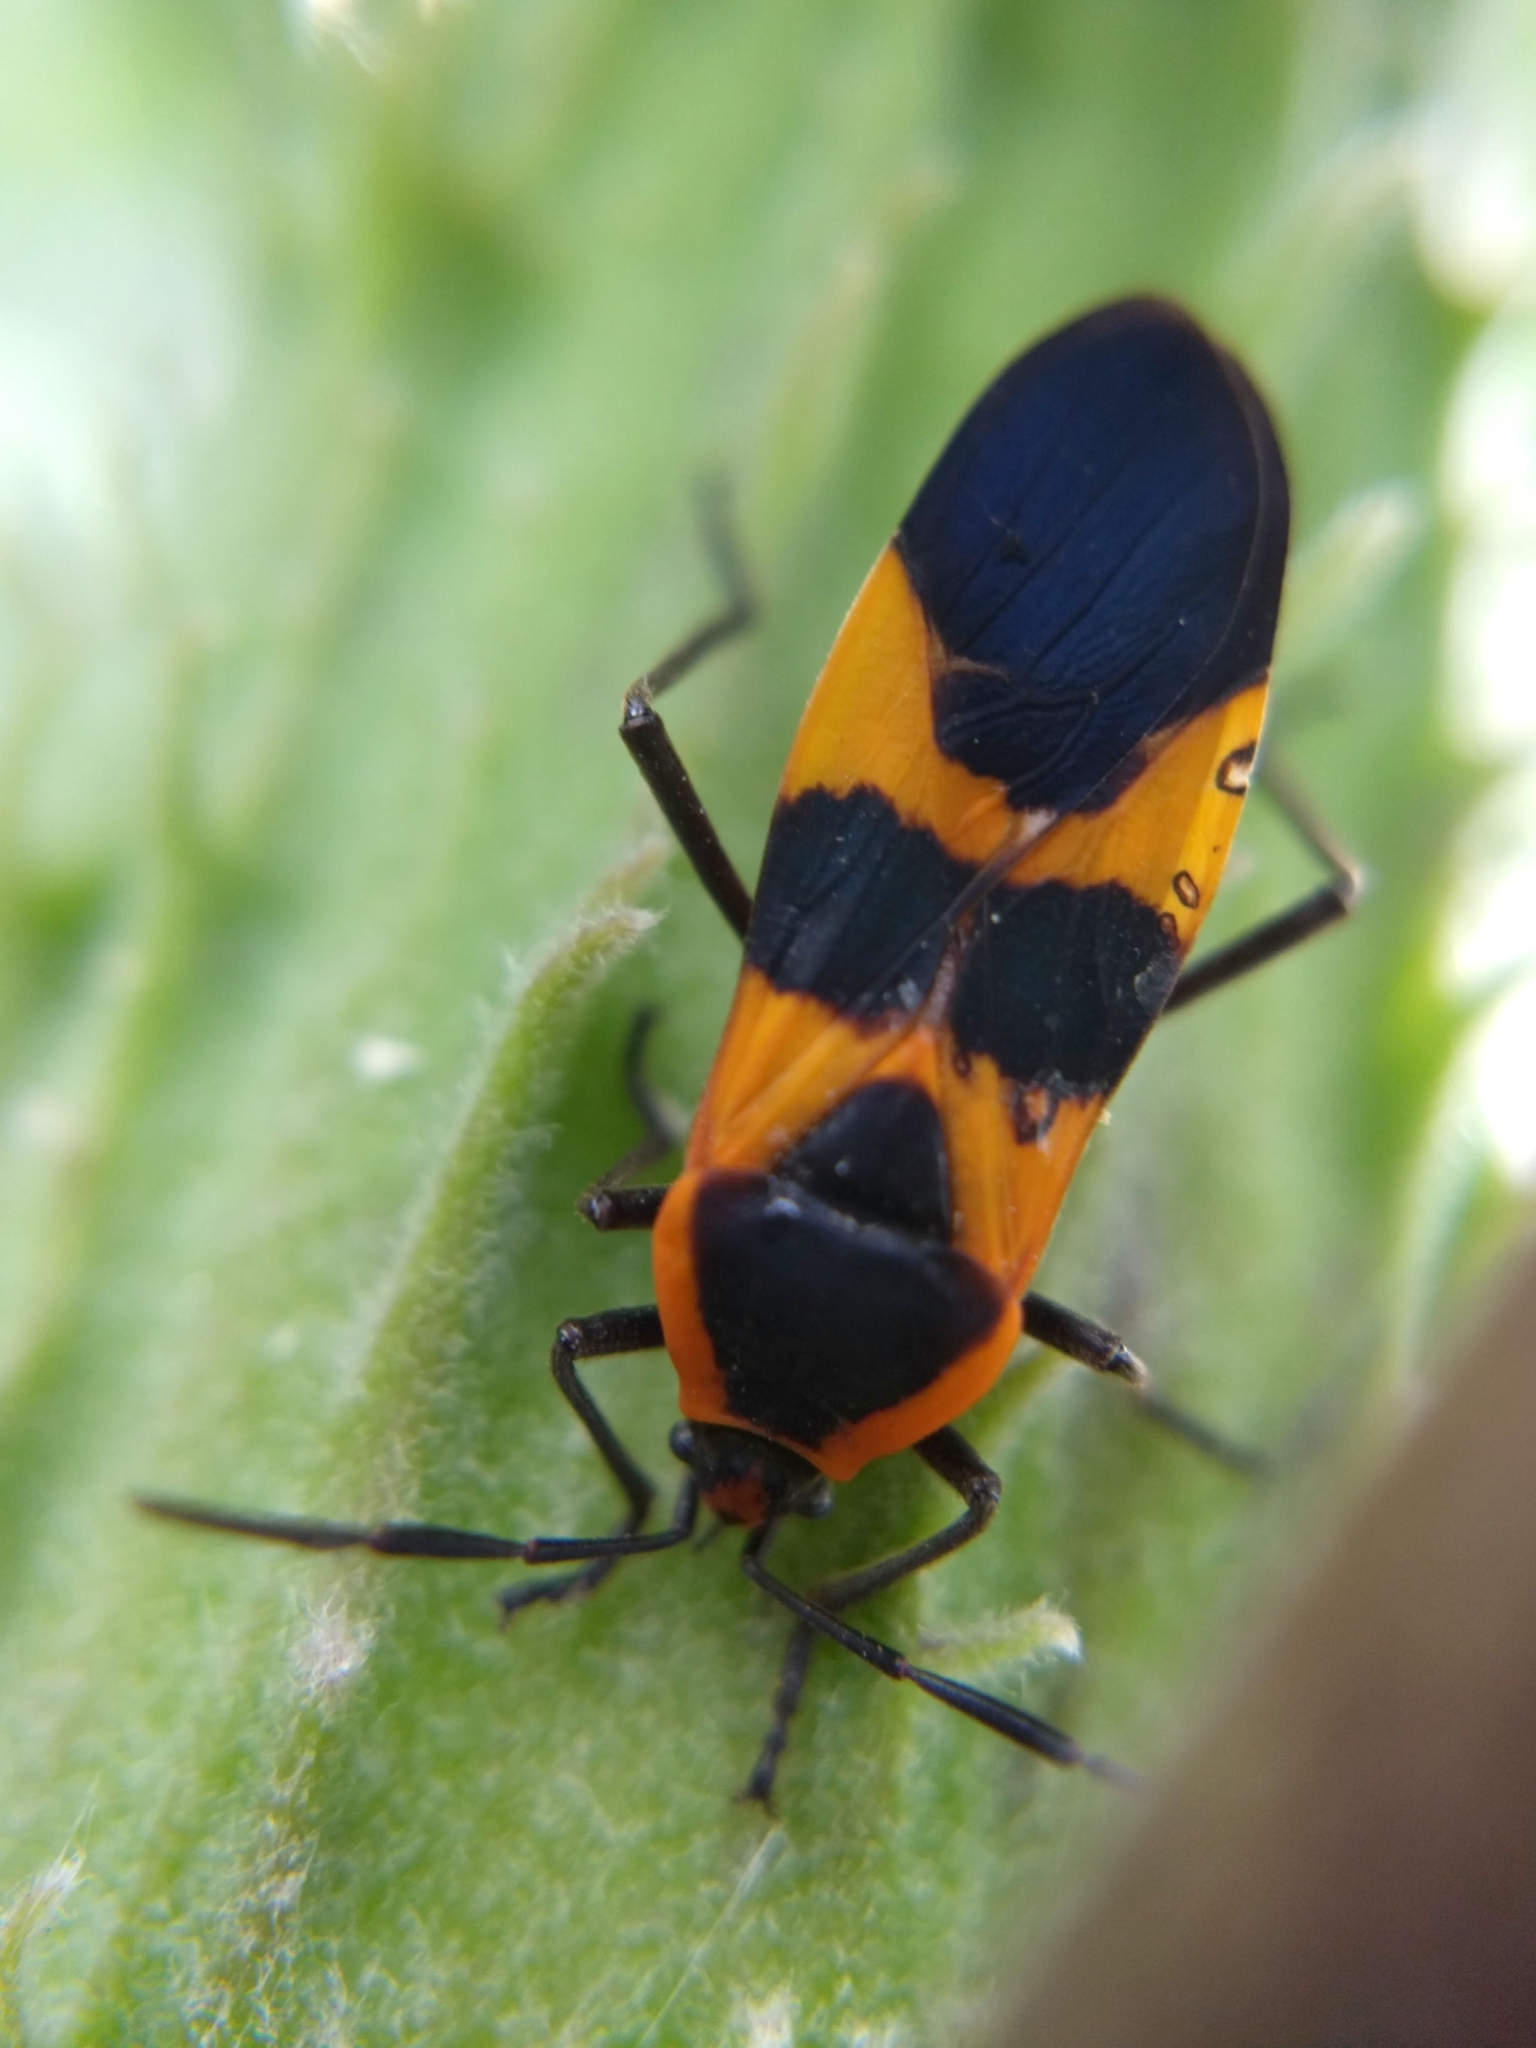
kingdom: Animalia
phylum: Arthropoda
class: Insecta
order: Hemiptera
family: Lygaeidae
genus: Oncopeltus
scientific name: Oncopeltus fasciatus
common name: Large milkweed bug
